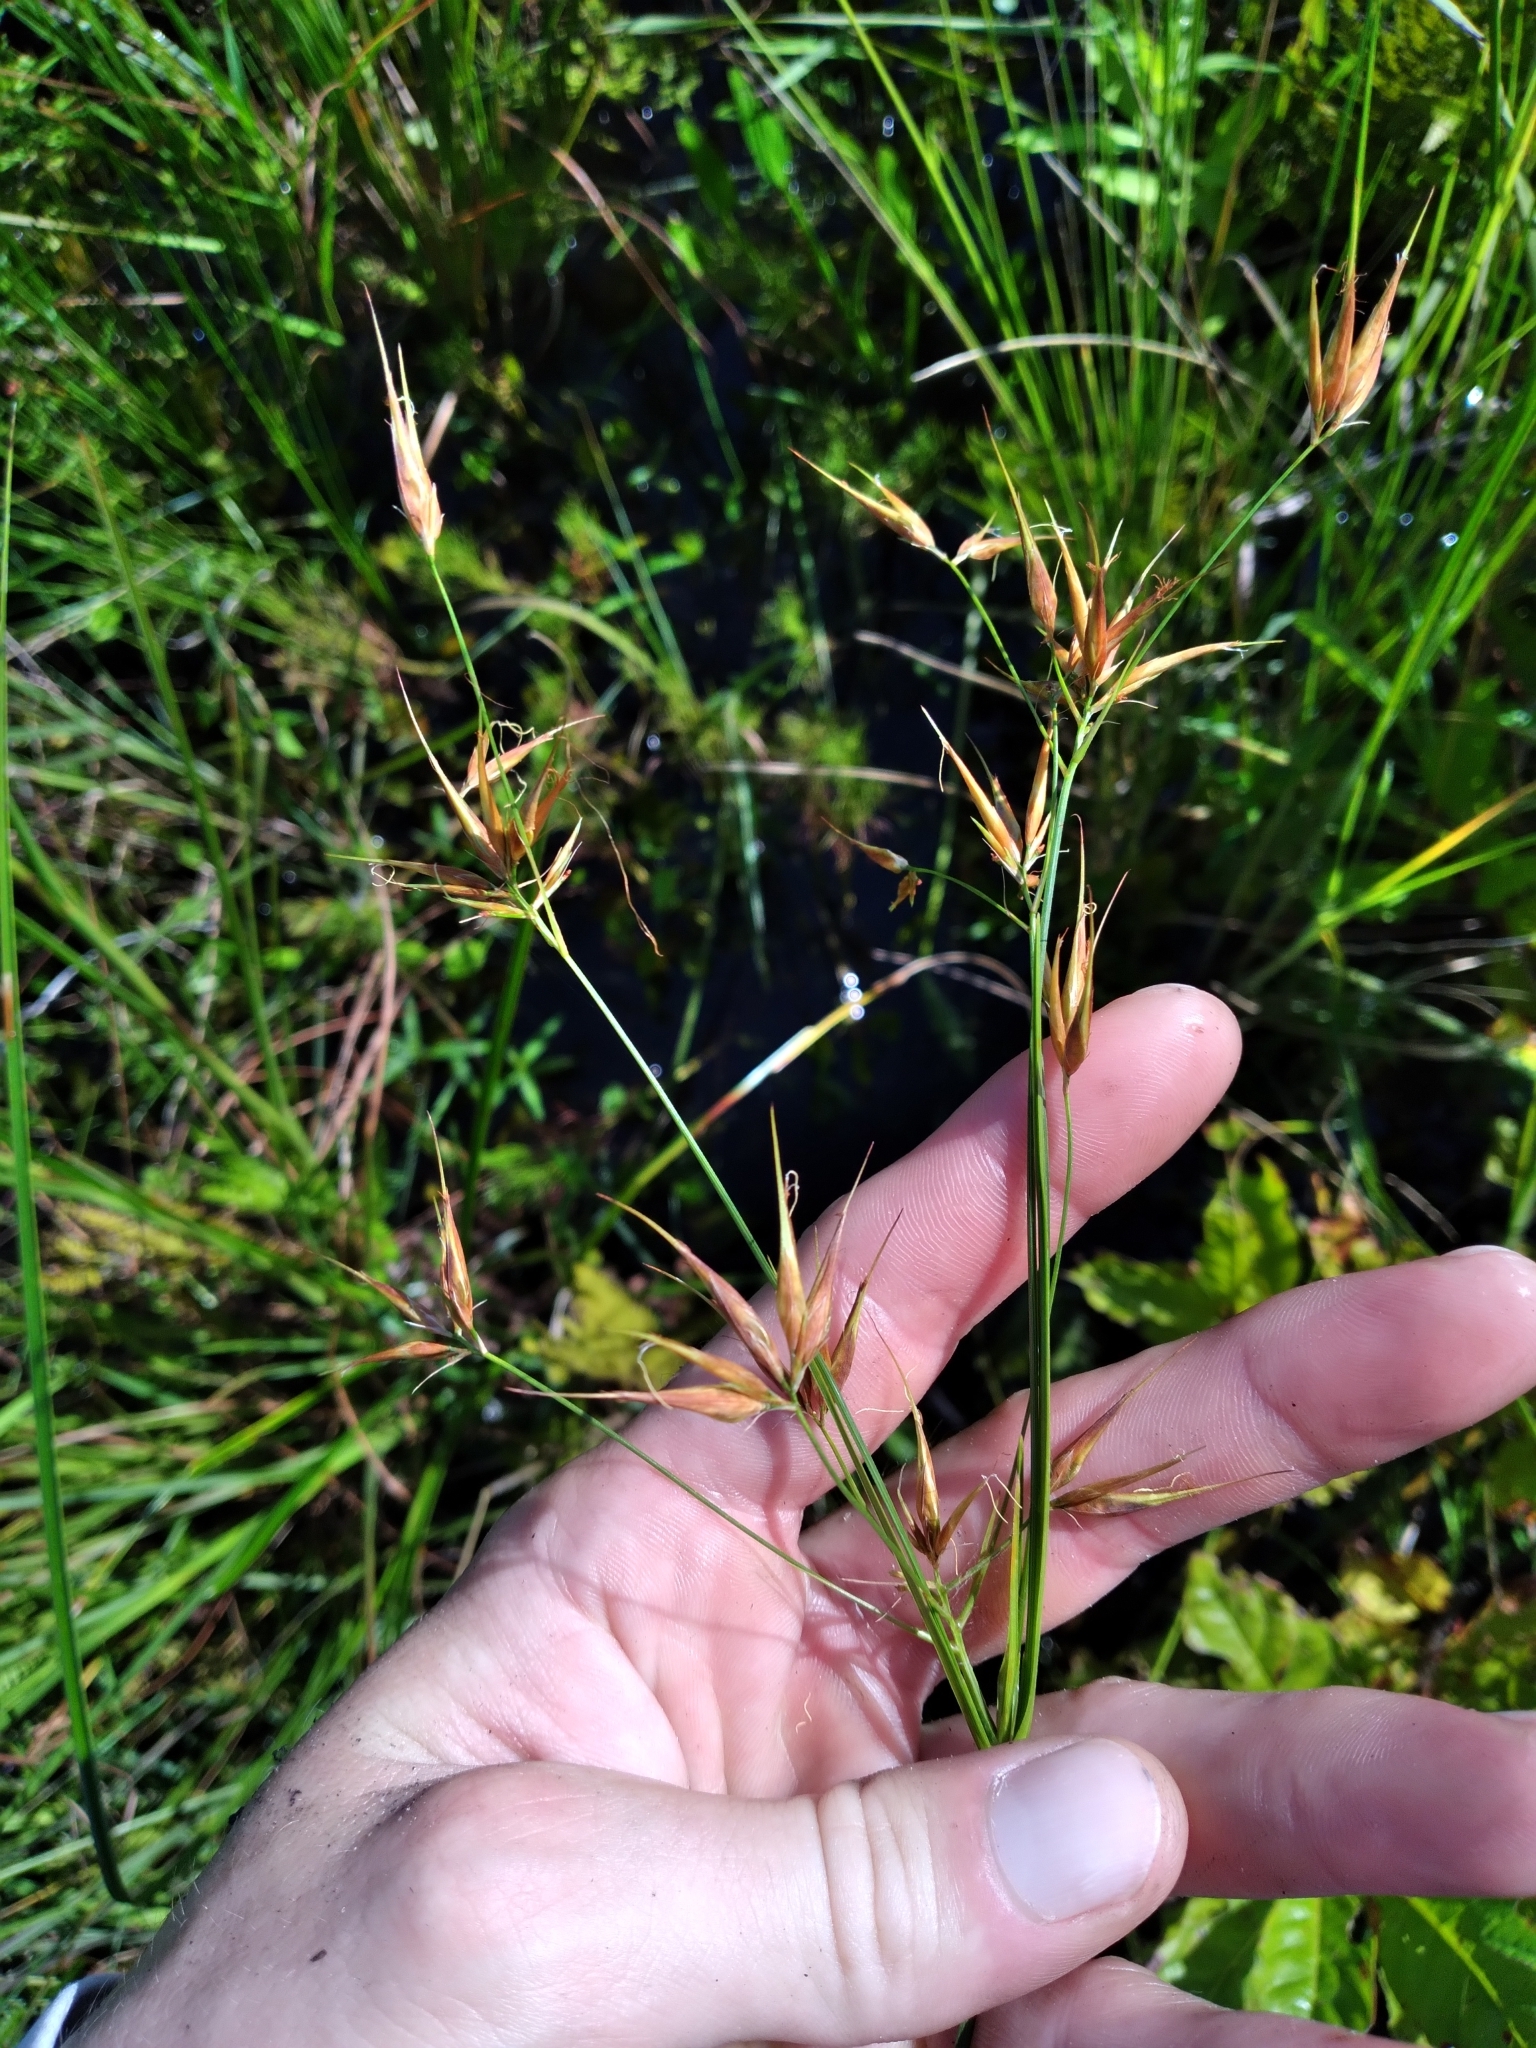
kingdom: Plantae
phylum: Tracheophyta
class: Liliopsida
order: Poales
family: Cyperaceae
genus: Rhynchospora
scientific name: Rhynchospora inundata
